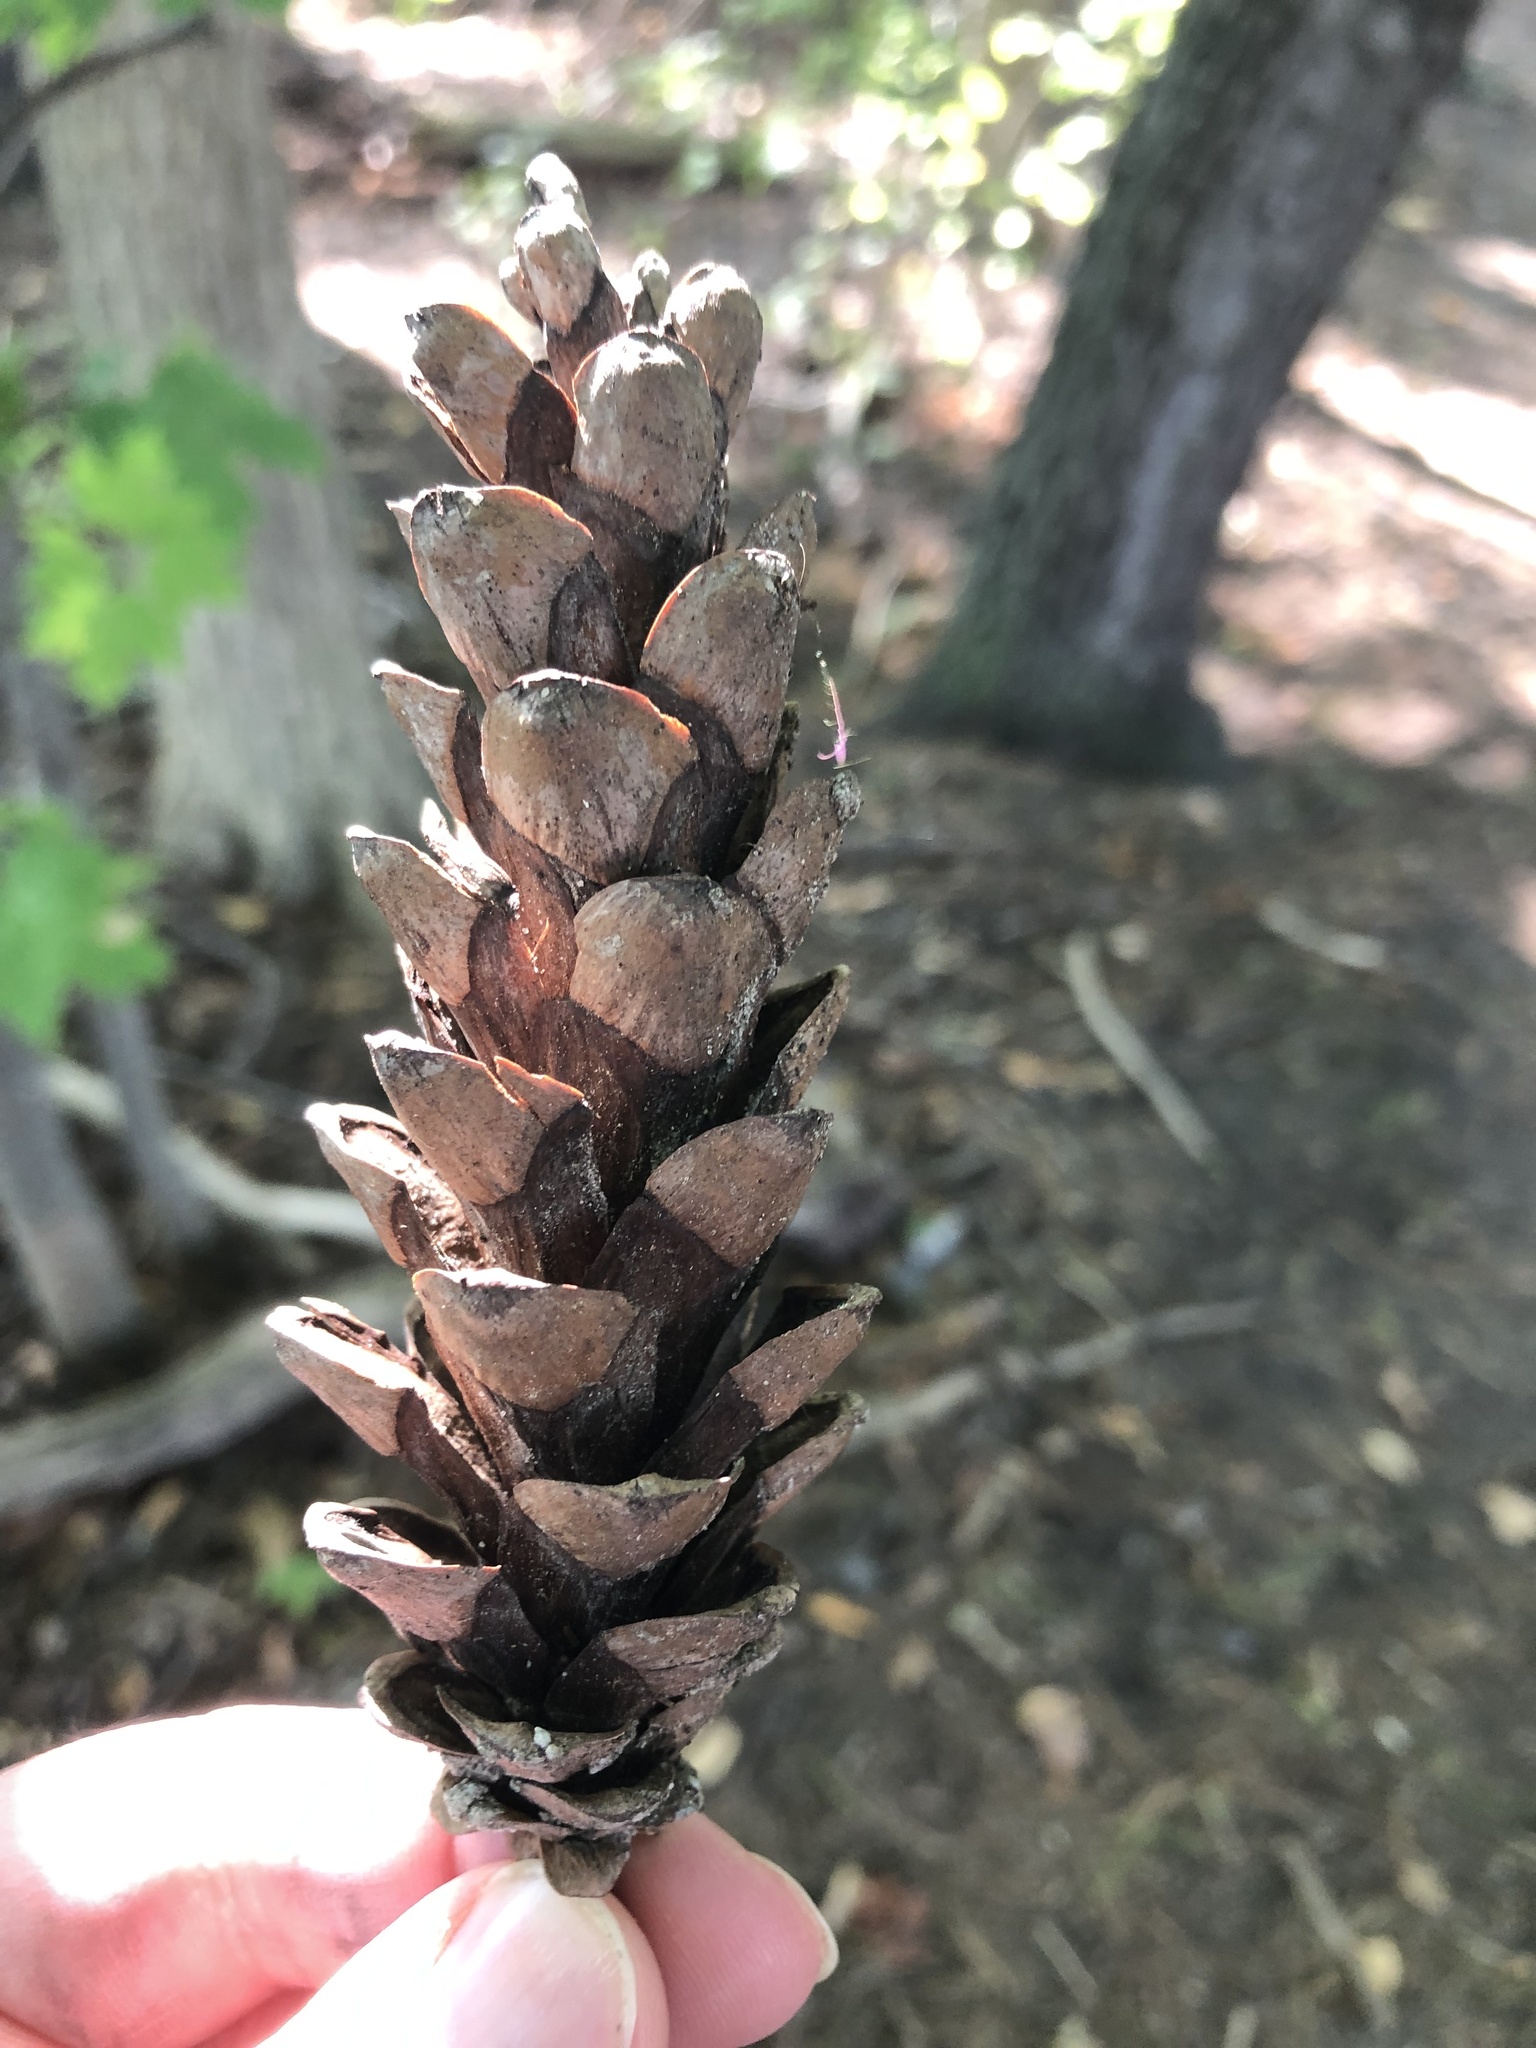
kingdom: Plantae
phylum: Tracheophyta
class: Pinopsida
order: Pinales
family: Pinaceae
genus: Pinus
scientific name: Pinus strobus
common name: Weymouth pine
